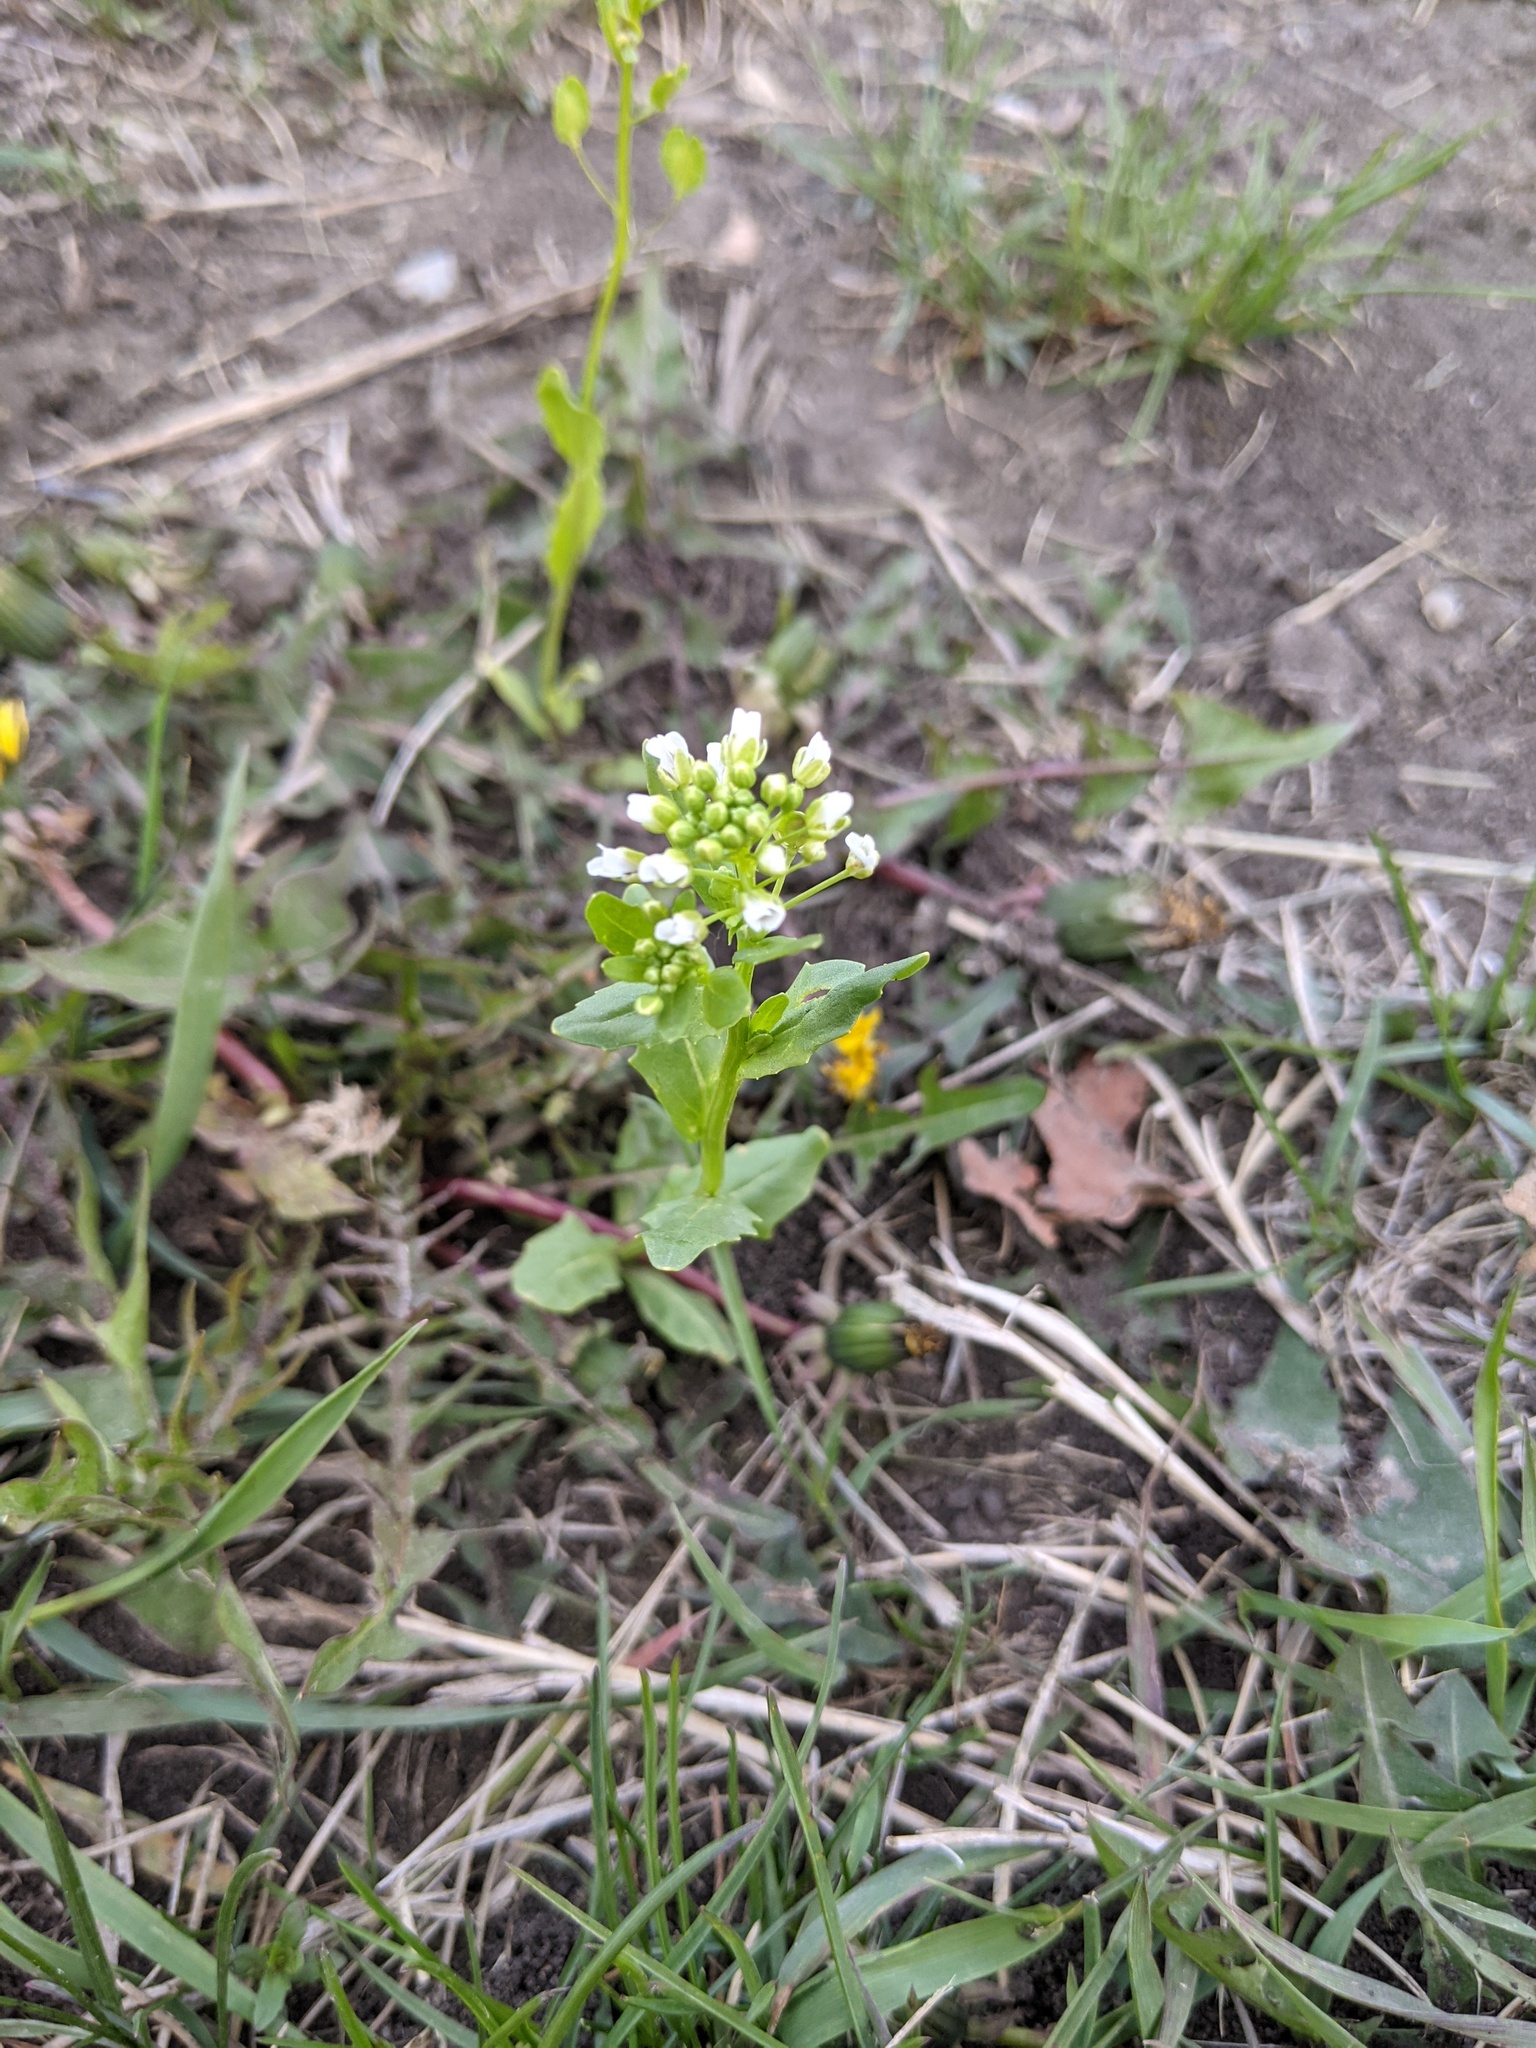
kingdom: Plantae
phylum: Tracheophyta
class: Magnoliopsida
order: Brassicales
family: Brassicaceae
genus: Thlaspi
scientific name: Thlaspi arvense
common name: Field pennycress
